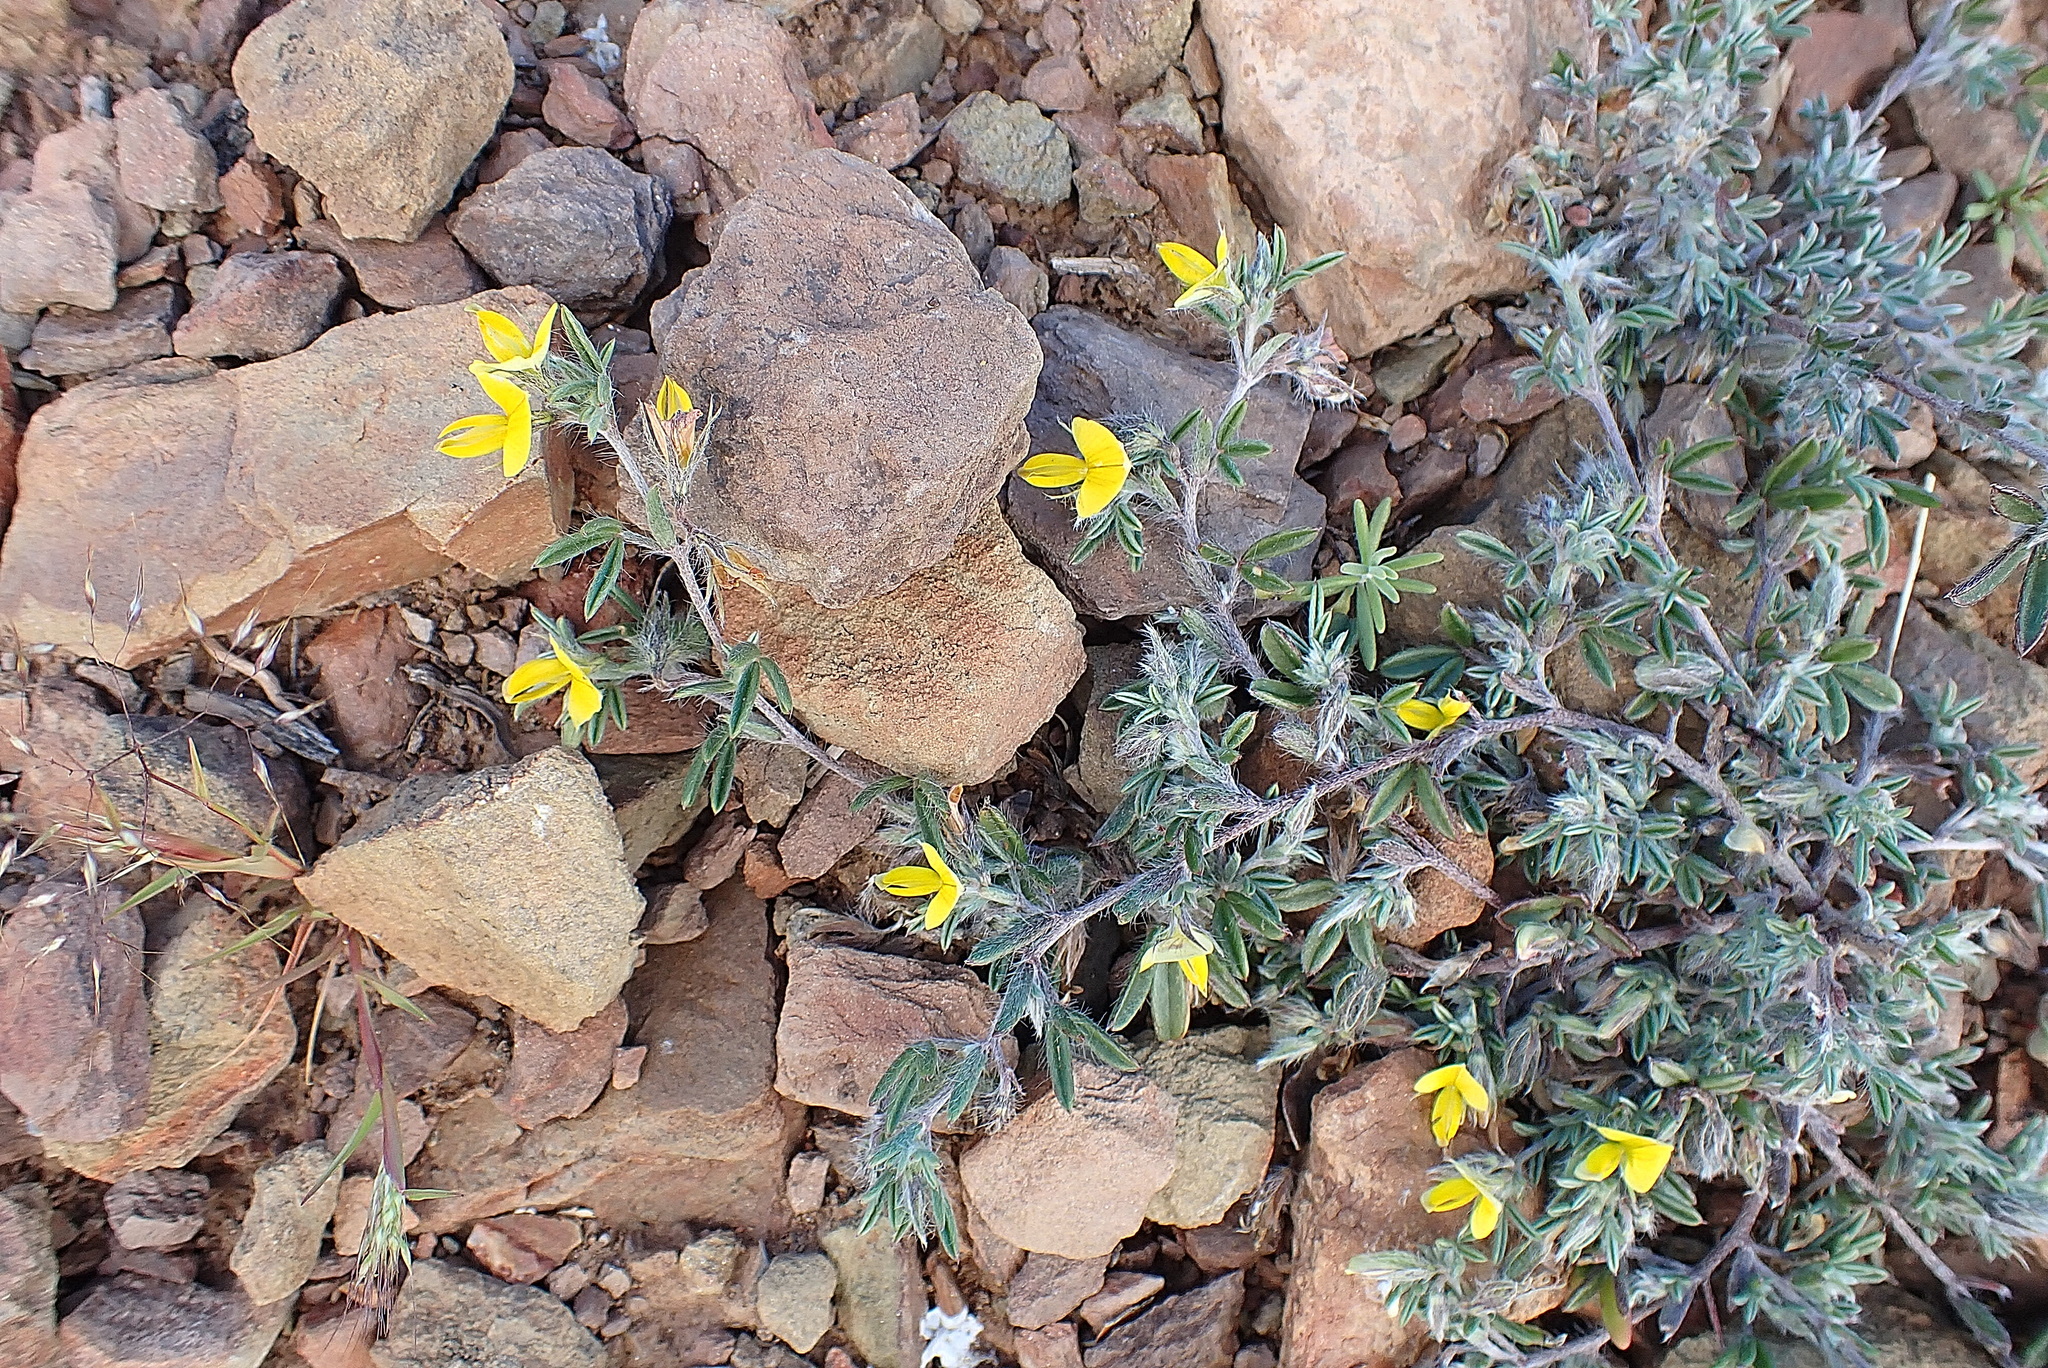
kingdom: Plantae
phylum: Tracheophyta
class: Magnoliopsida
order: Fabales
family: Fabaceae
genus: Lotononis
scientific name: Lotononis pumila
